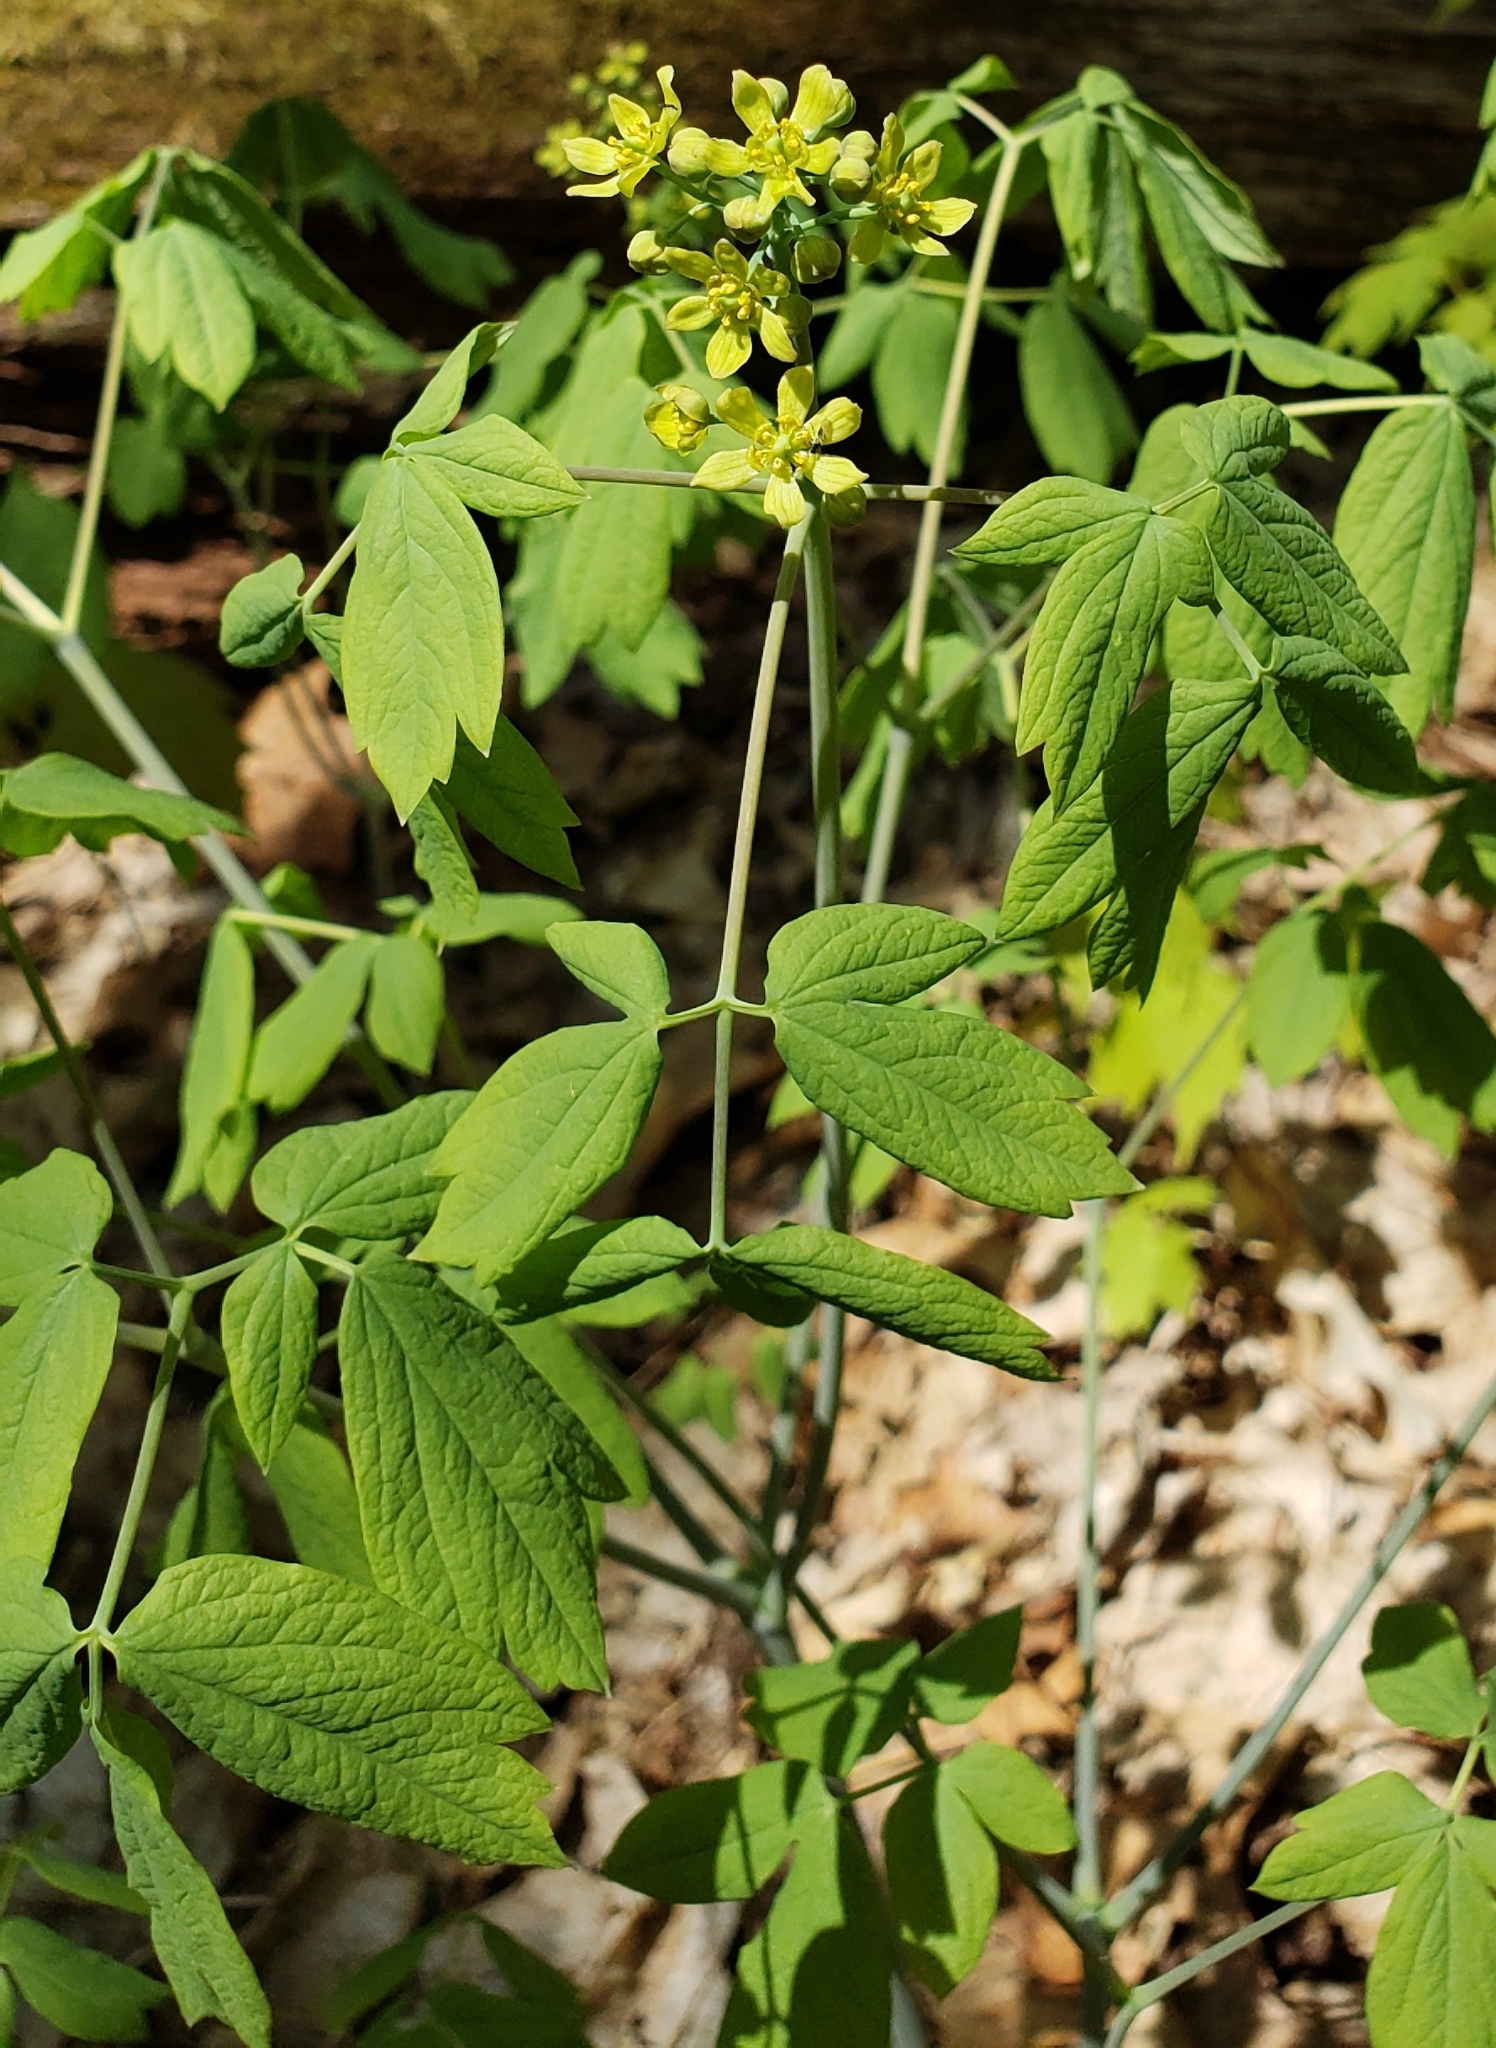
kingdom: Plantae
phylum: Tracheophyta
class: Magnoliopsida
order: Ranunculales
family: Berberidaceae
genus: Caulophyllum
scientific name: Caulophyllum thalictroides
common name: Blue cohosh
